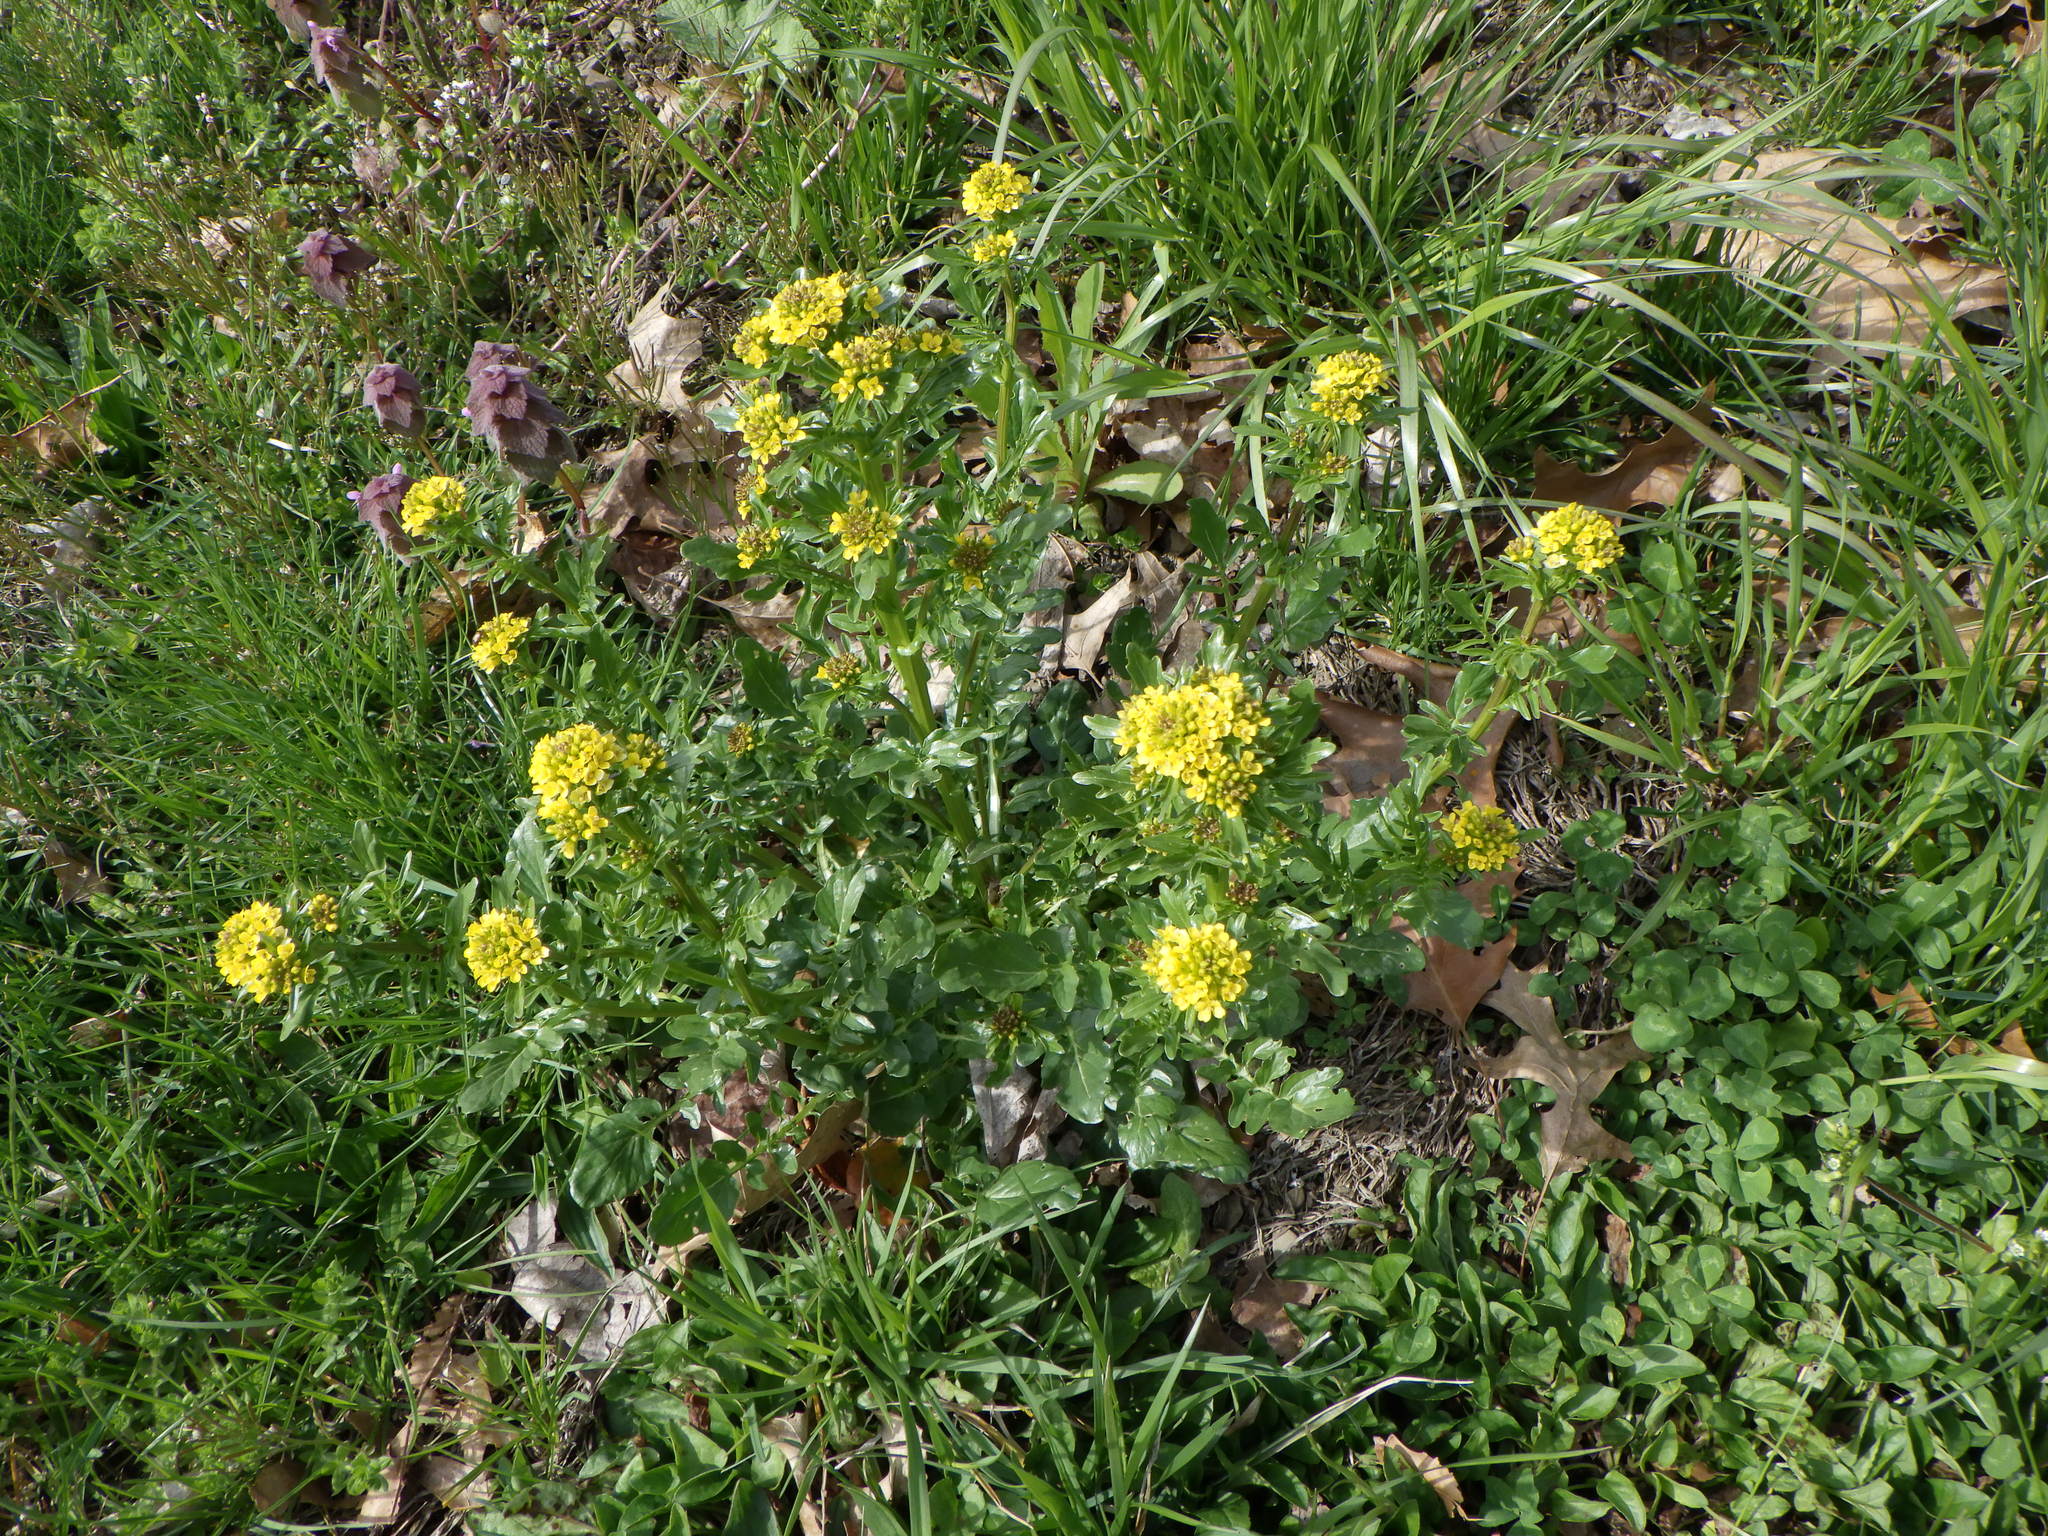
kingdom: Plantae
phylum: Tracheophyta
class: Magnoliopsida
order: Brassicales
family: Brassicaceae
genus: Barbarea
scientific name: Barbarea vulgaris
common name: Cressy-greens
